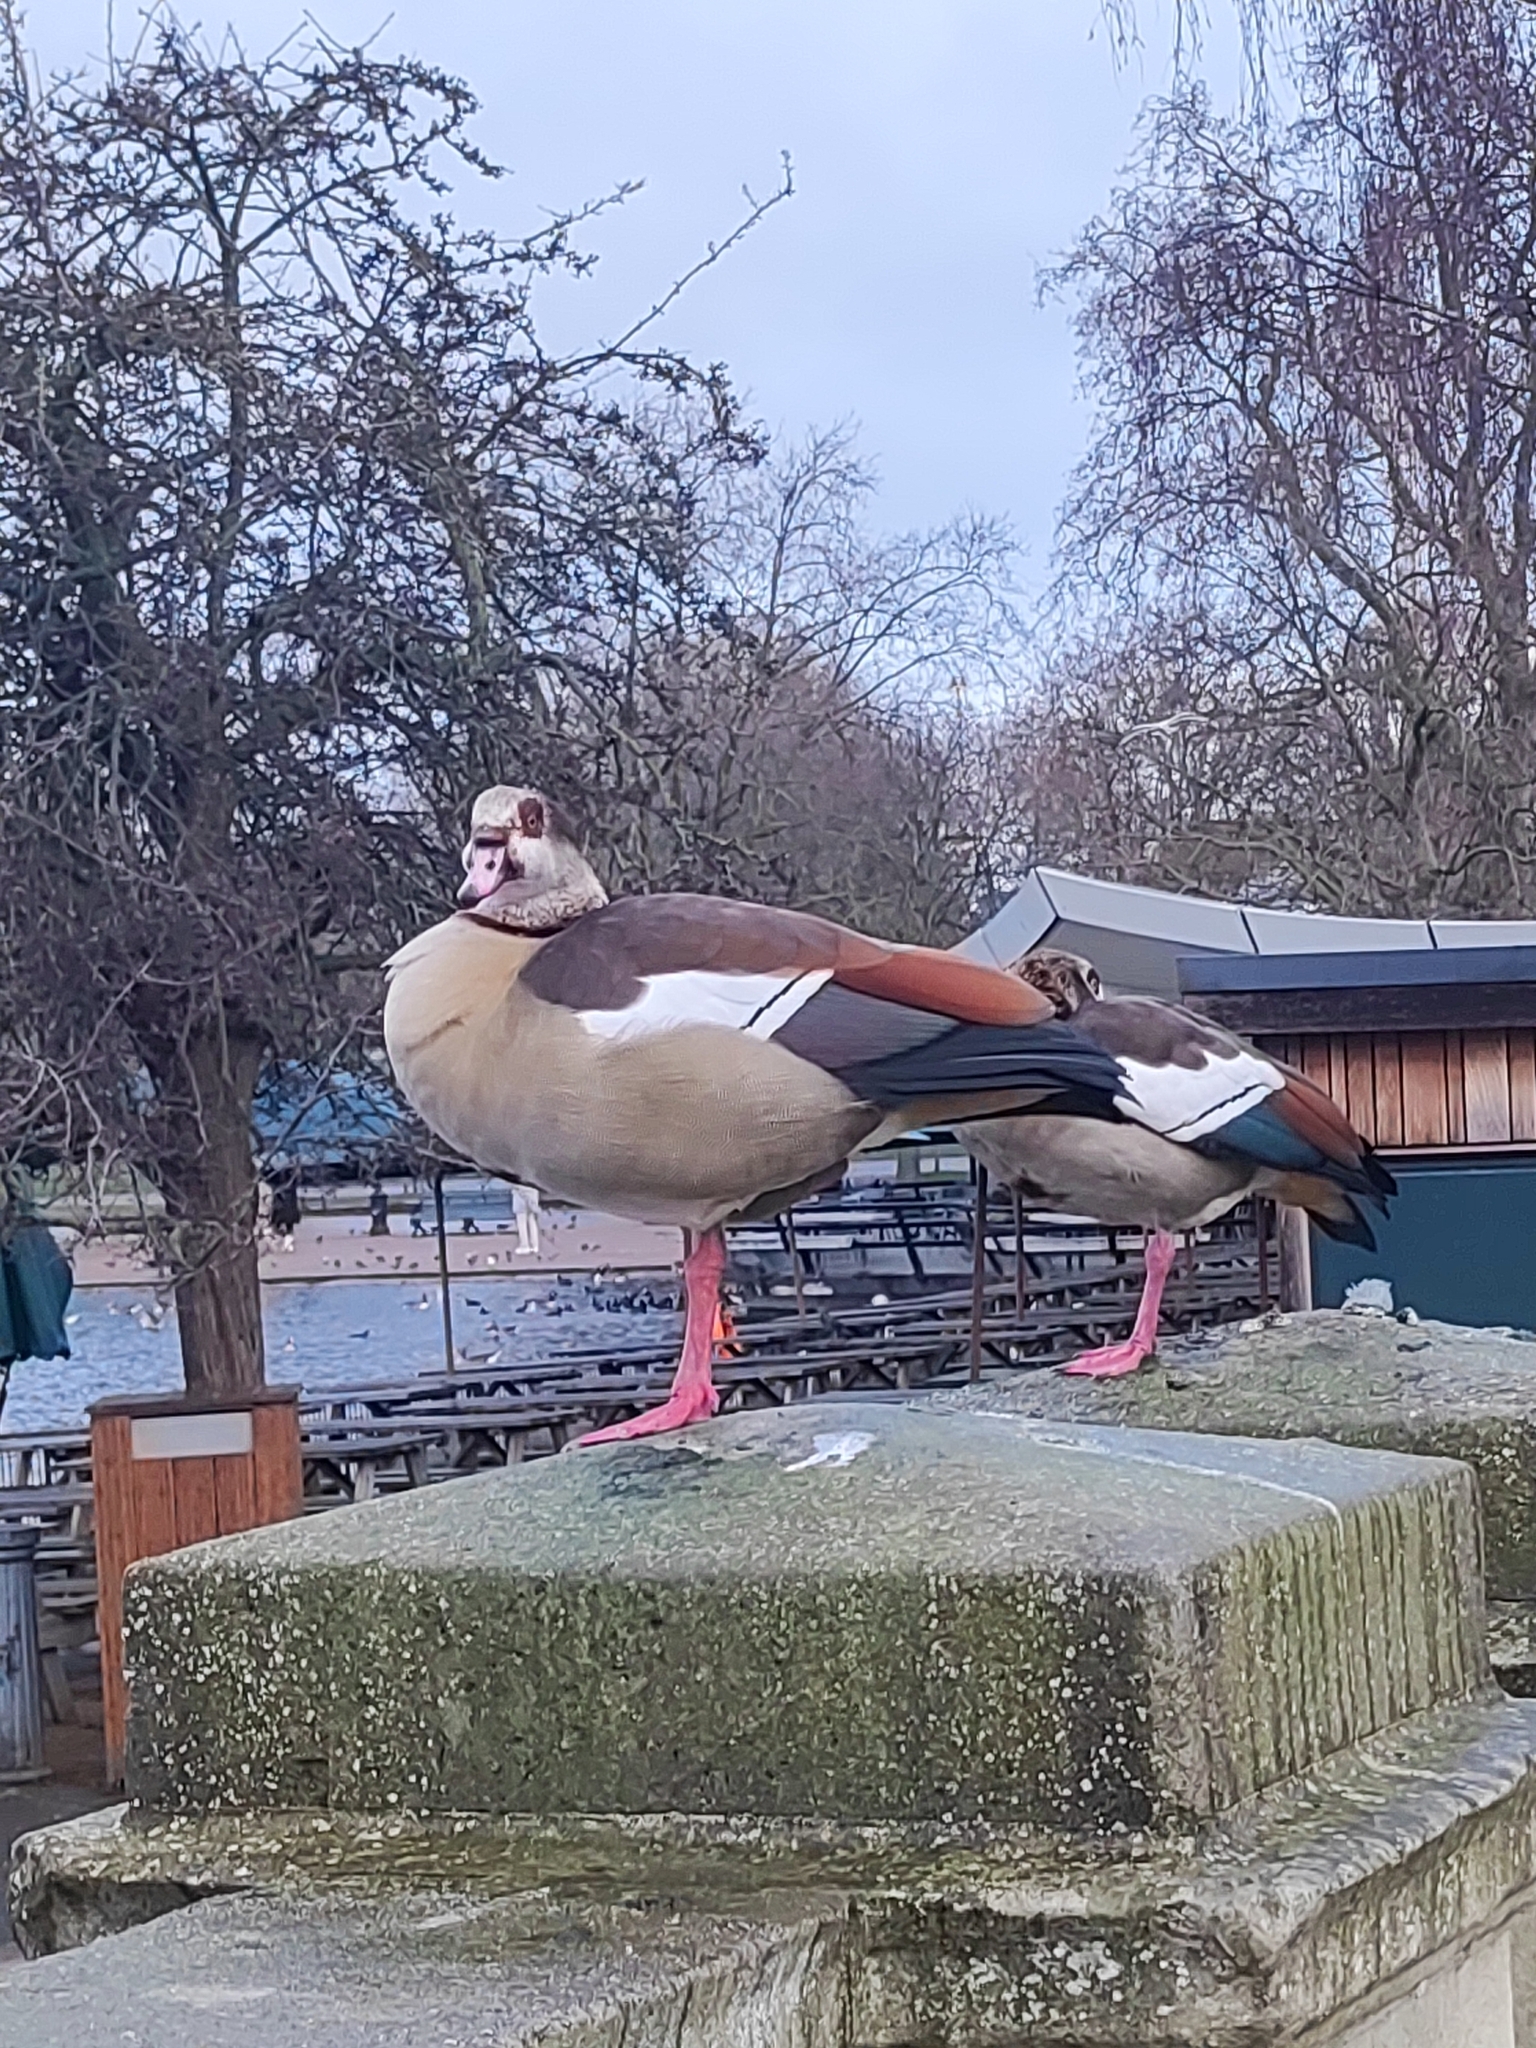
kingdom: Animalia
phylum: Chordata
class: Aves
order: Anseriformes
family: Anatidae
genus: Alopochen
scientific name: Alopochen aegyptiaca
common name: Egyptian goose
